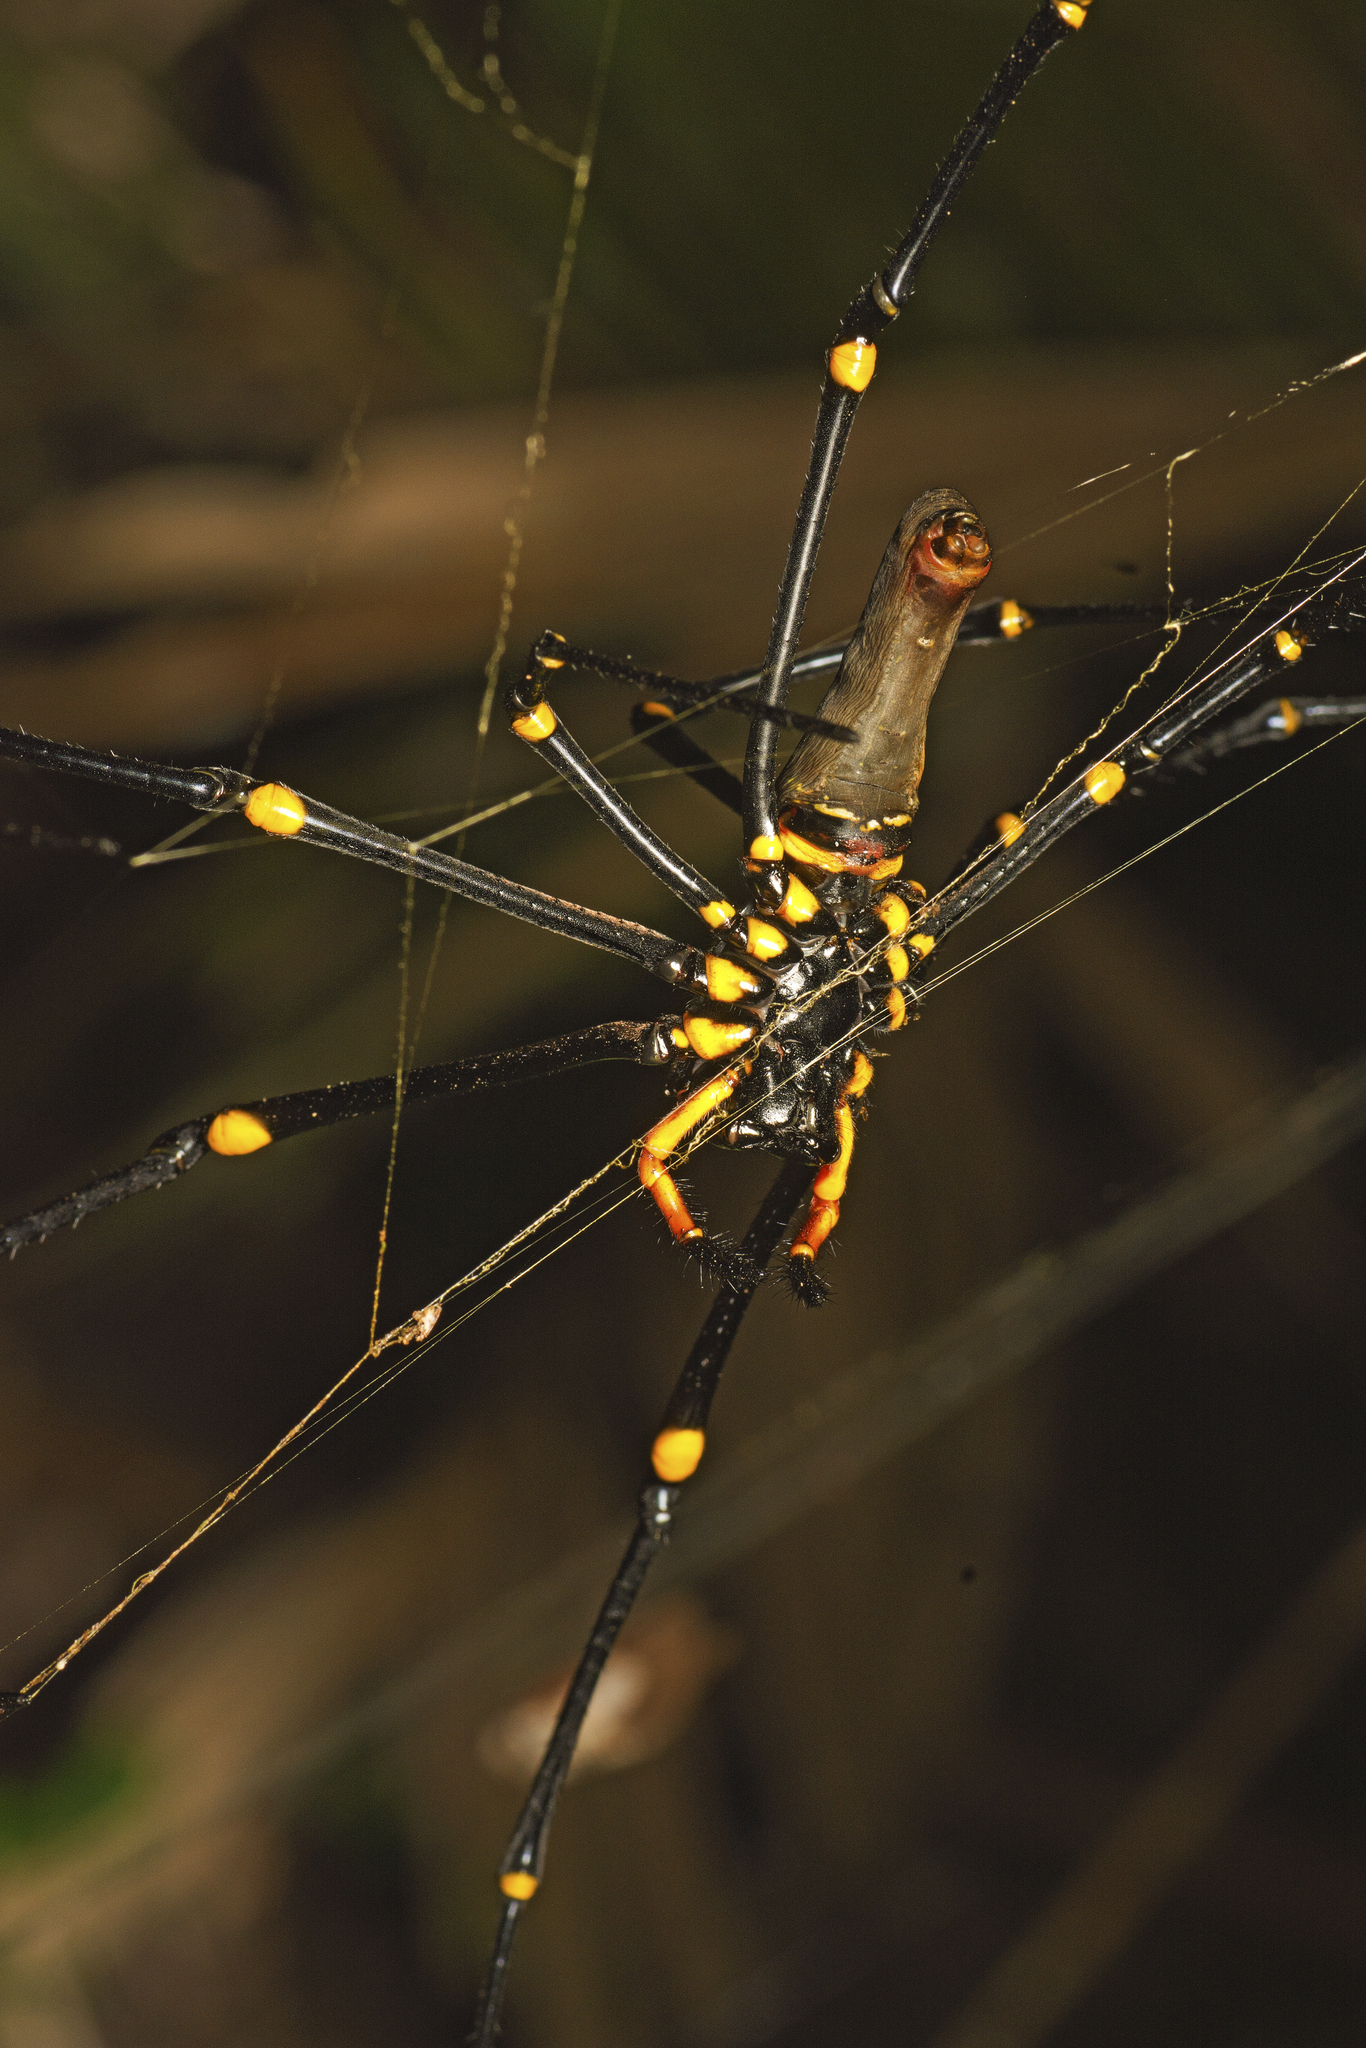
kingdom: Animalia
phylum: Arthropoda
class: Arachnida
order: Araneae
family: Araneidae
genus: Nephila
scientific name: Nephila pilipes
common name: Giant golden orb weaver
